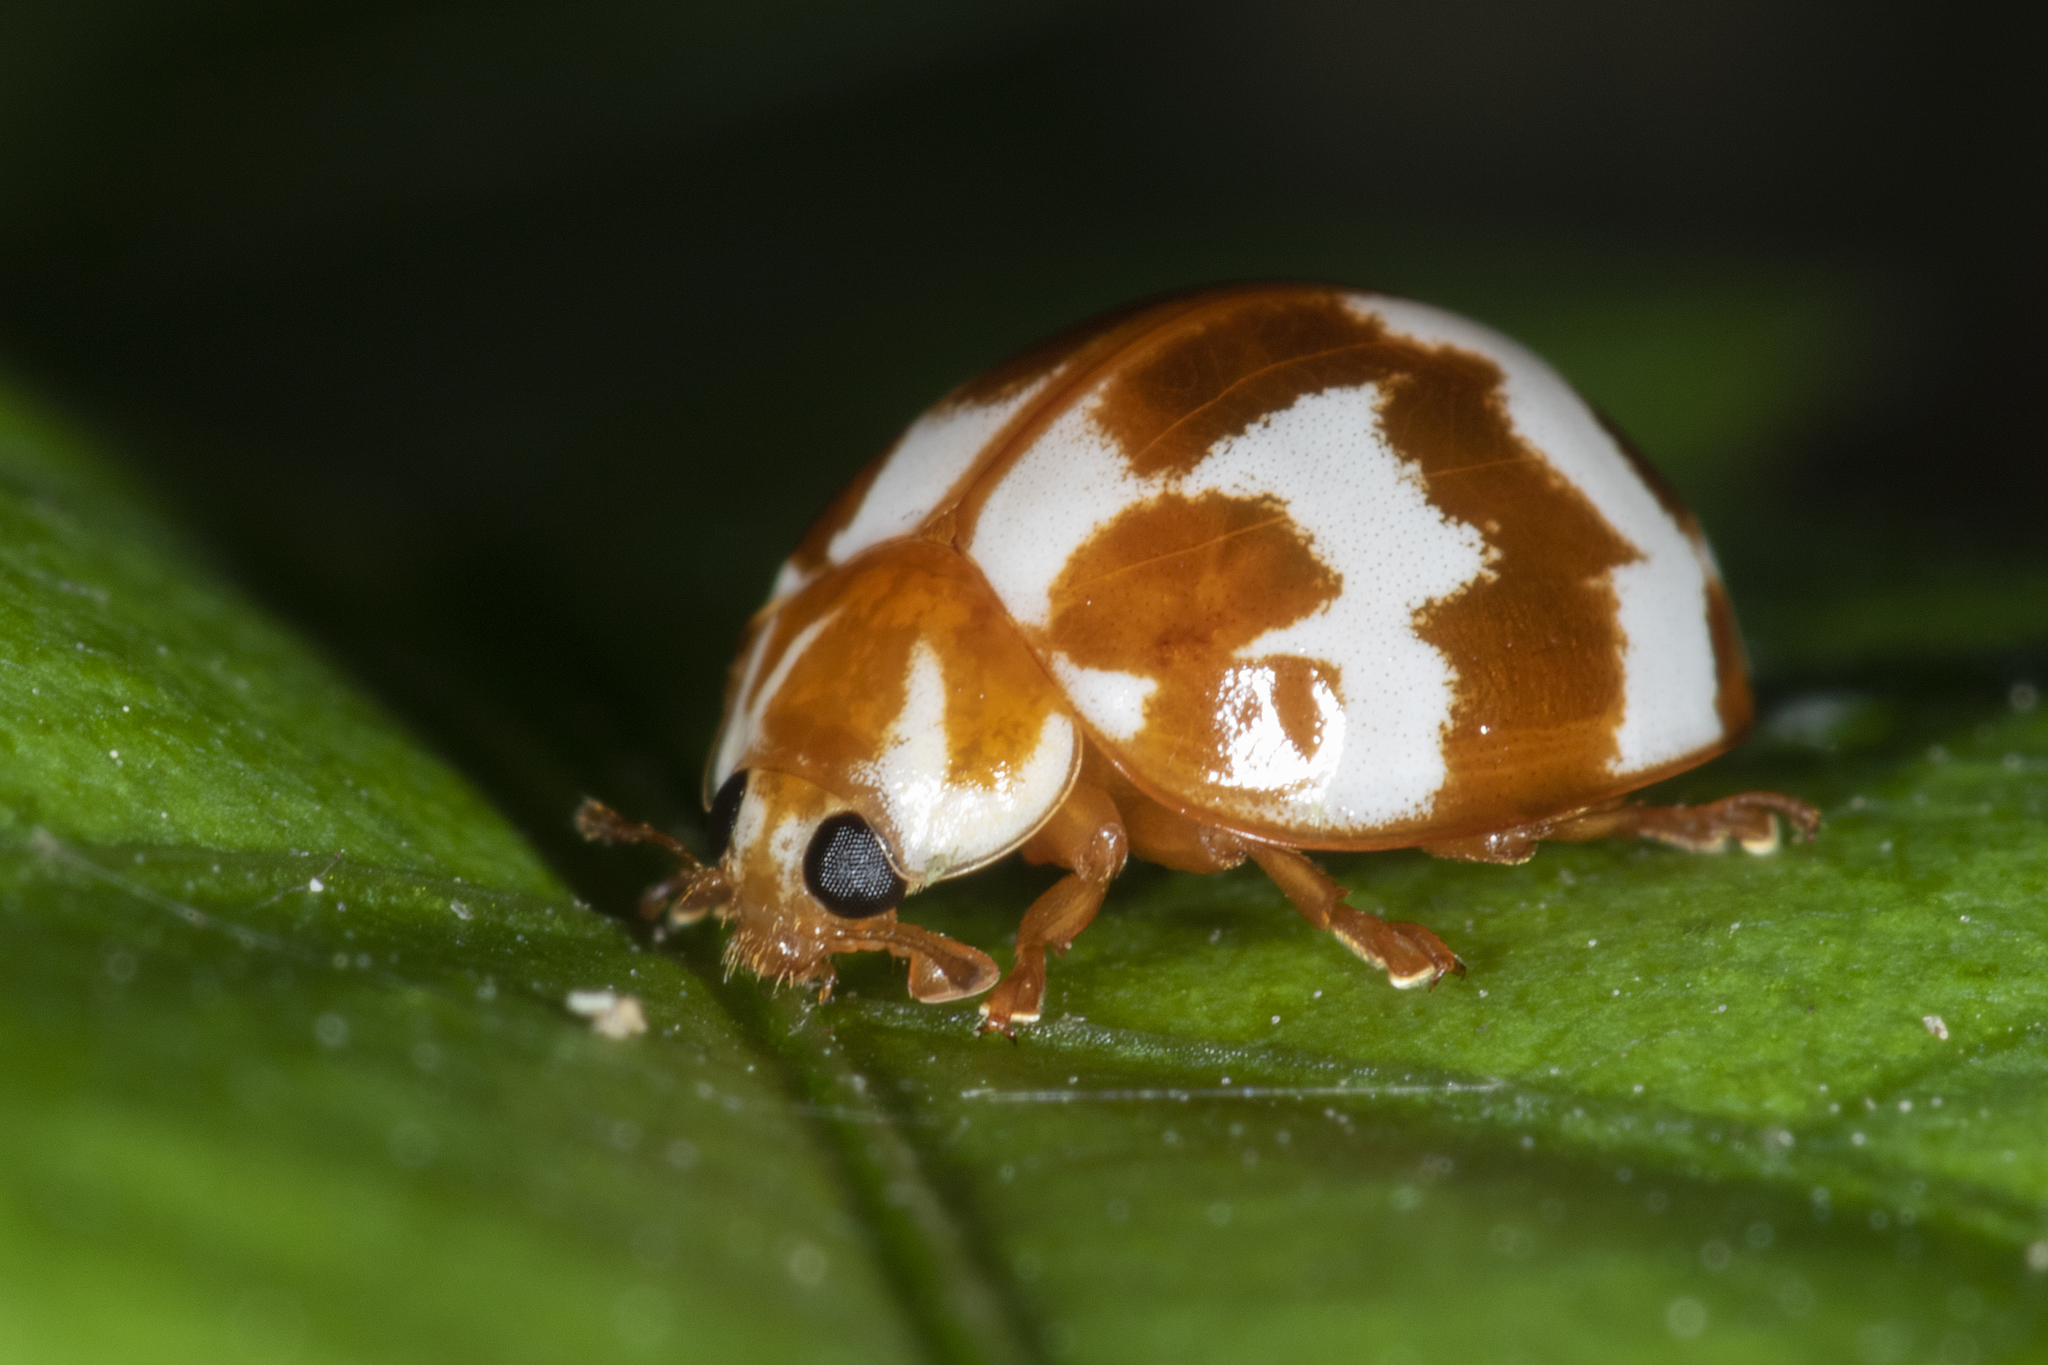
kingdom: Animalia
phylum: Arthropoda
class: Insecta
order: Coleoptera
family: Coccinellidae
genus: Neocalvia
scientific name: Neocalvia
